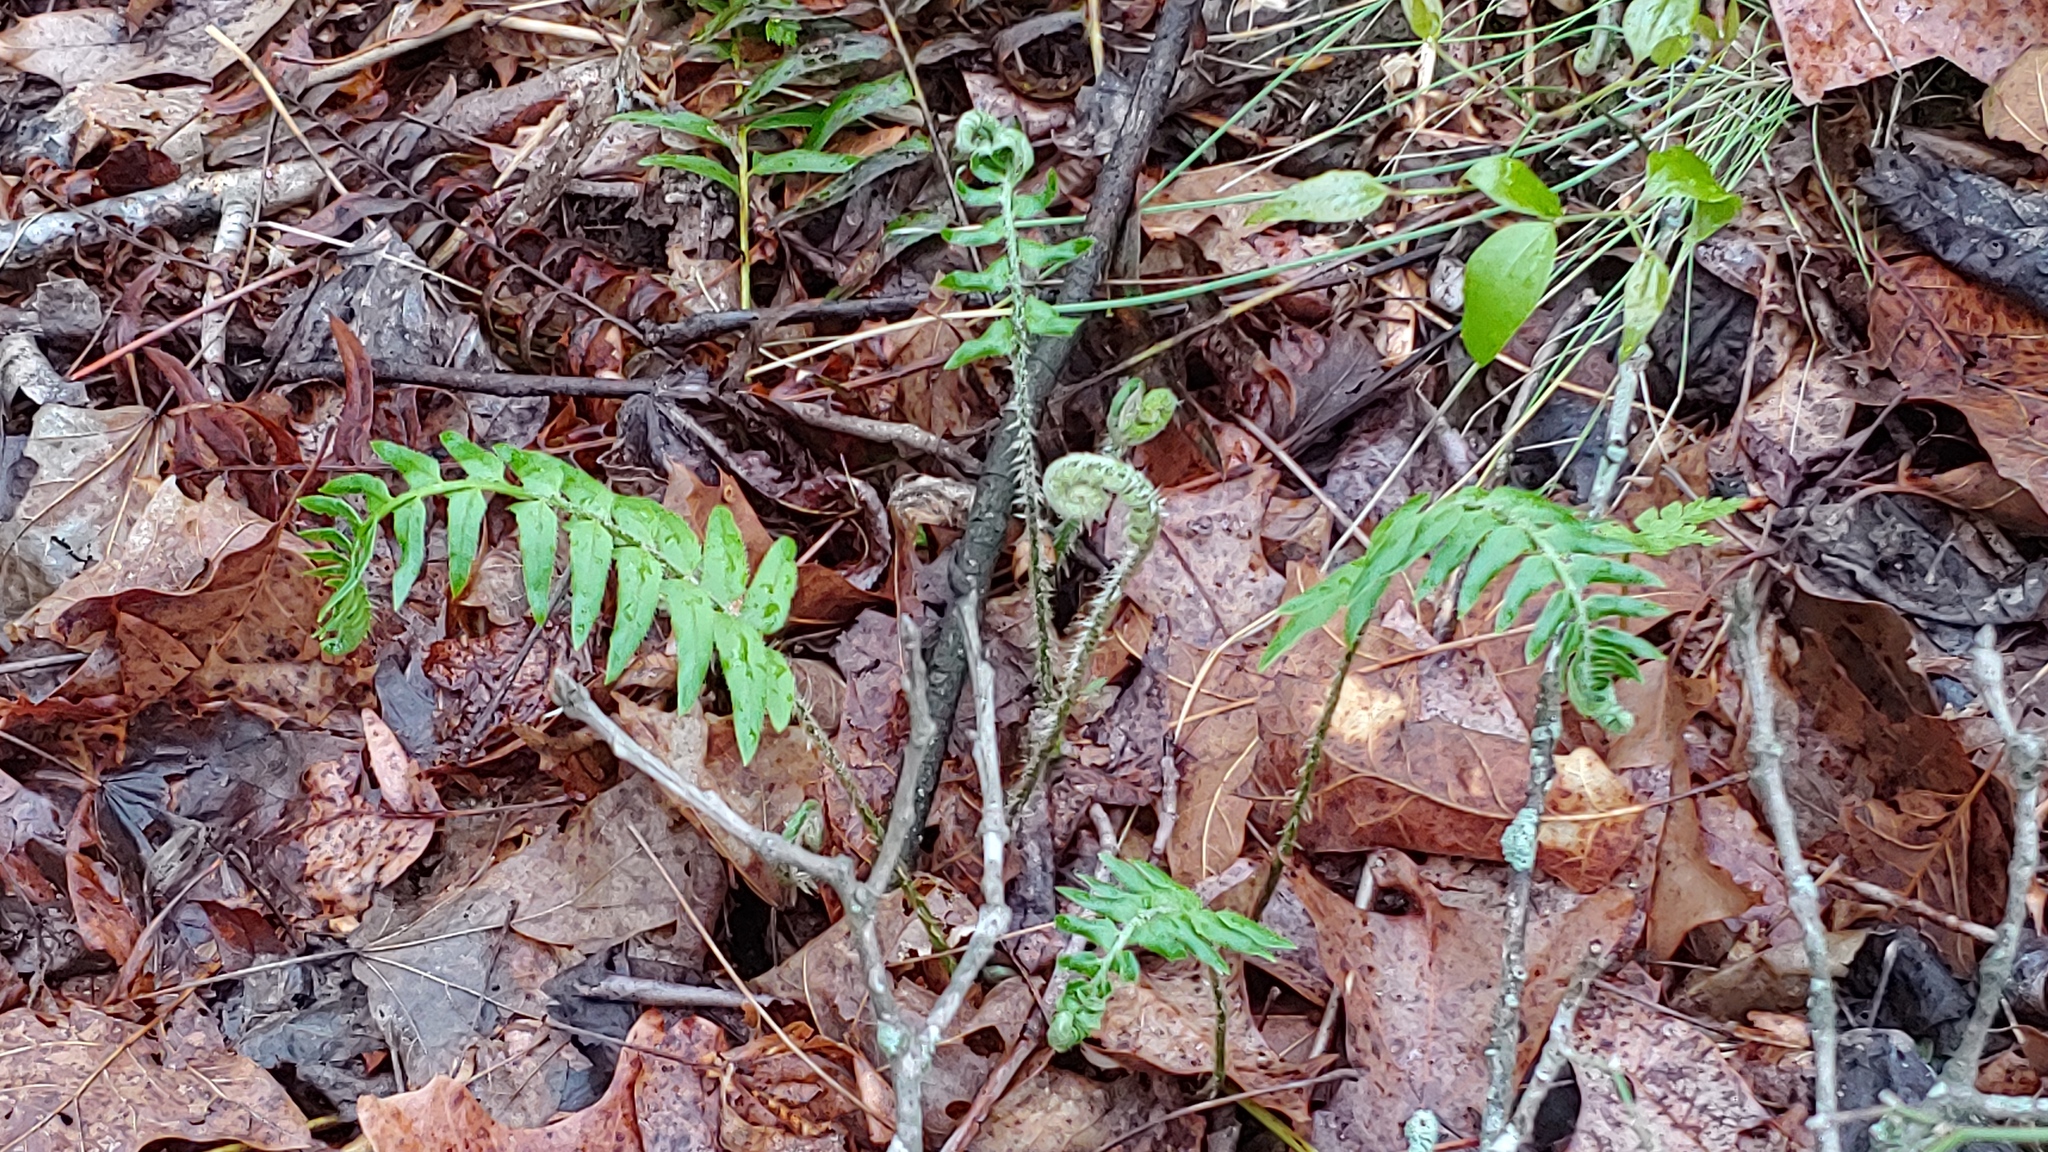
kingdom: Plantae
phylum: Tracheophyta
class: Polypodiopsida
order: Polypodiales
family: Dryopteridaceae
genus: Polystichum
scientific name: Polystichum acrostichoides
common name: Christmas fern
